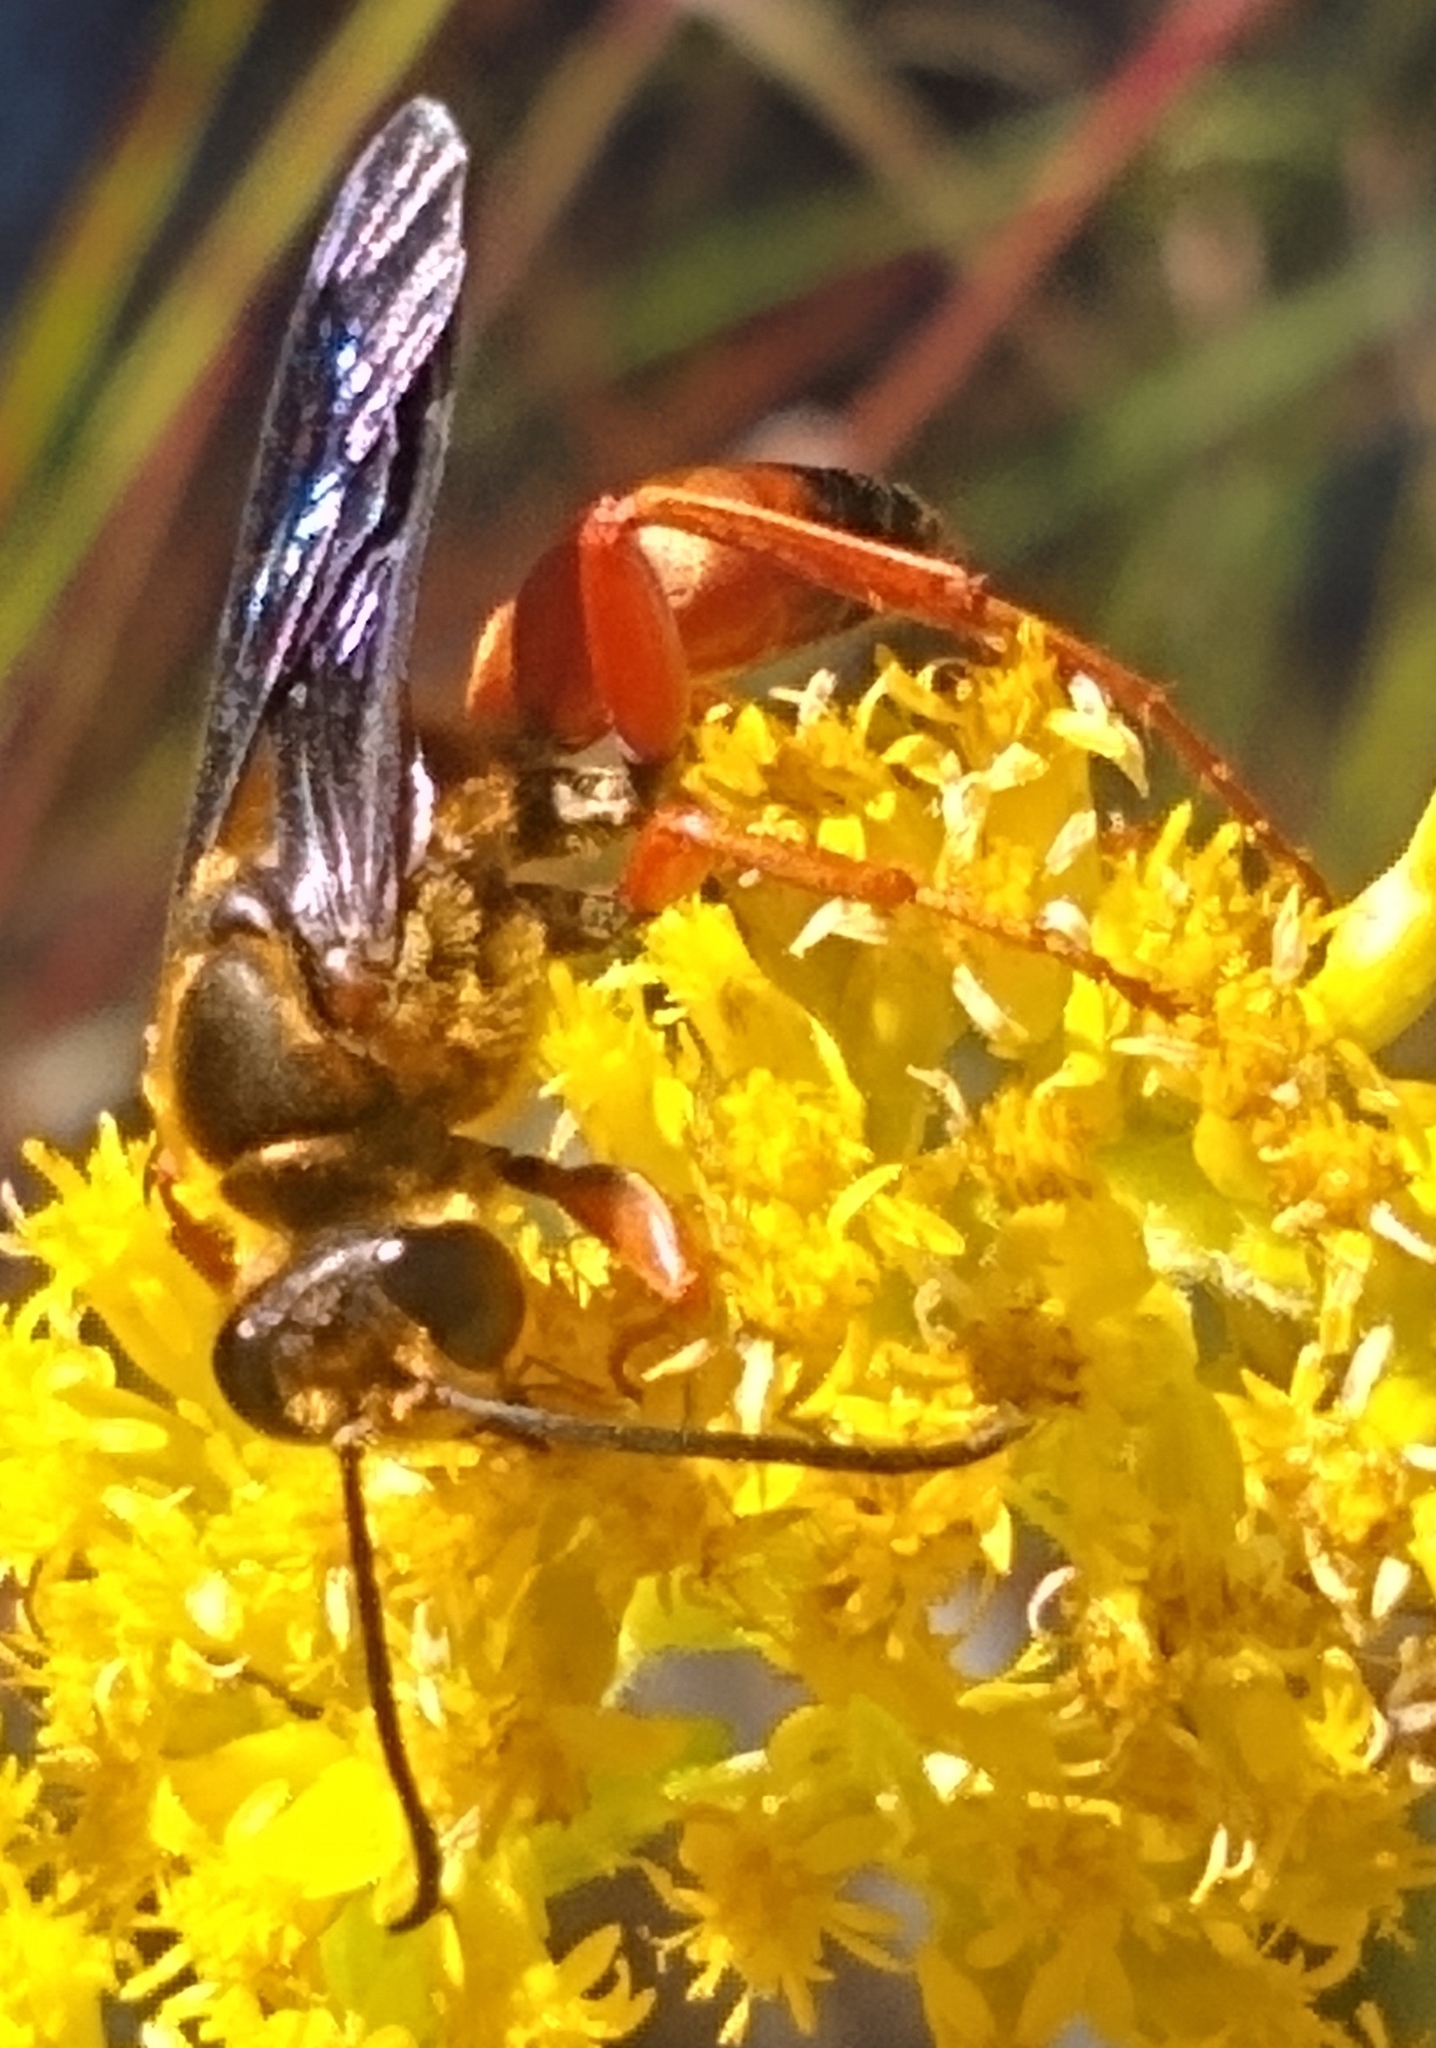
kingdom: Animalia
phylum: Arthropoda
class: Insecta
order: Hymenoptera
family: Sphecidae
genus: Sphex
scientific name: Sphex ichneumoneus
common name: Great golden digger wasp
